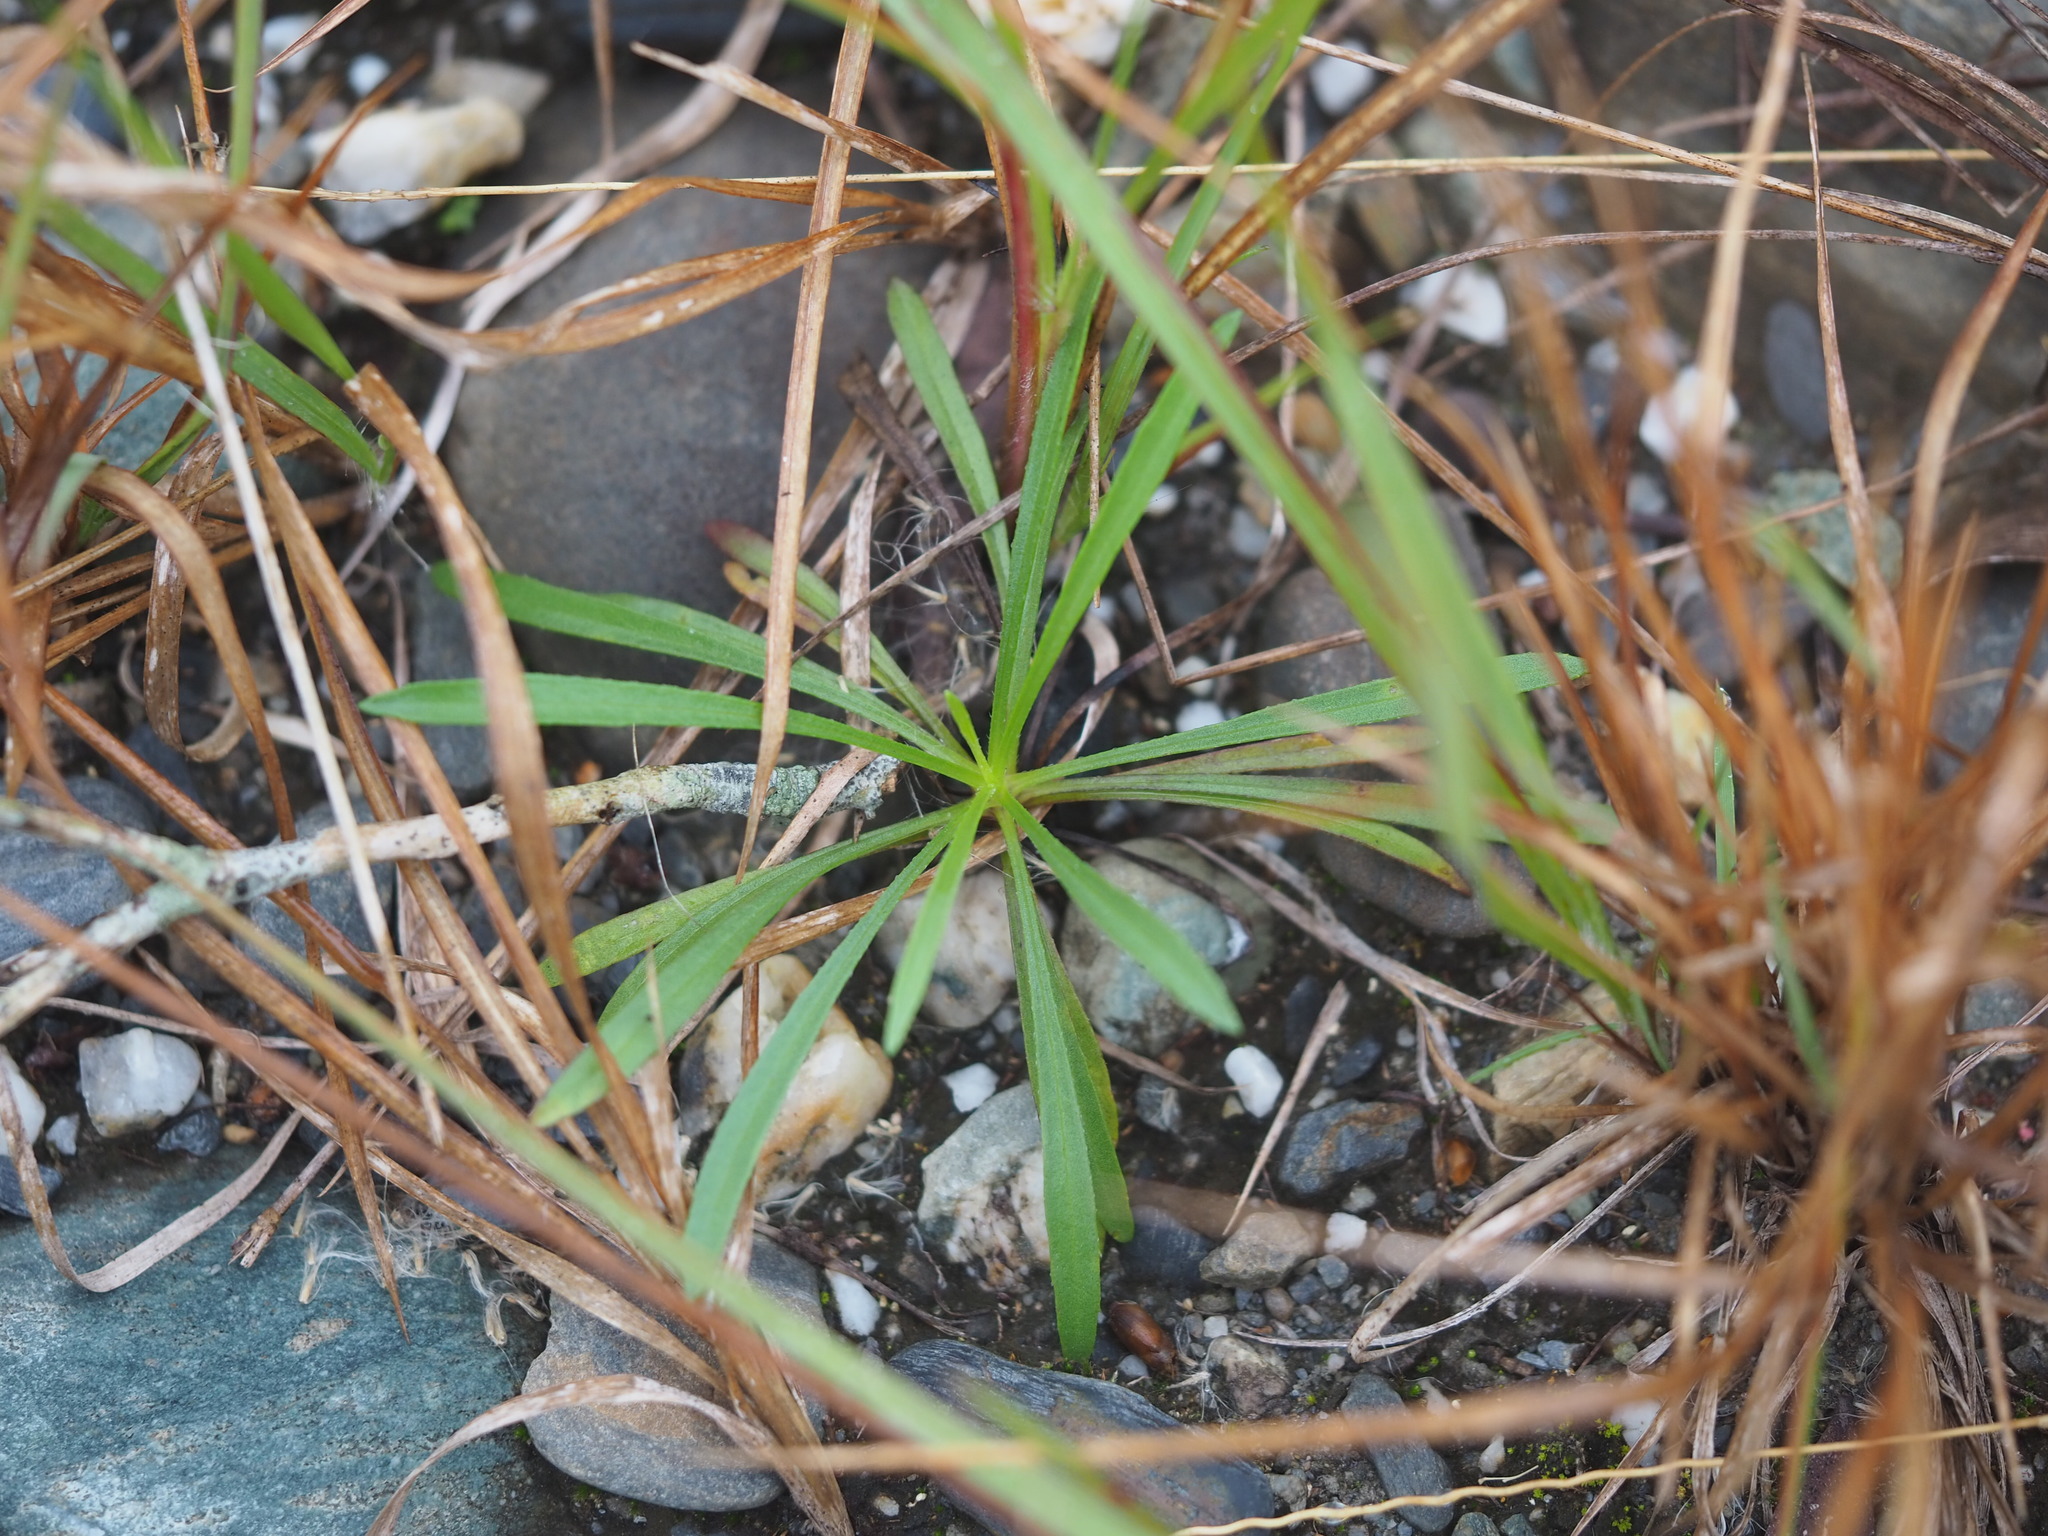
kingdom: Plantae
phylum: Tracheophyta
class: Magnoliopsida
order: Asterales
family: Asteraceae
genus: Heteropappus
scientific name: Heteropappus altaicus
